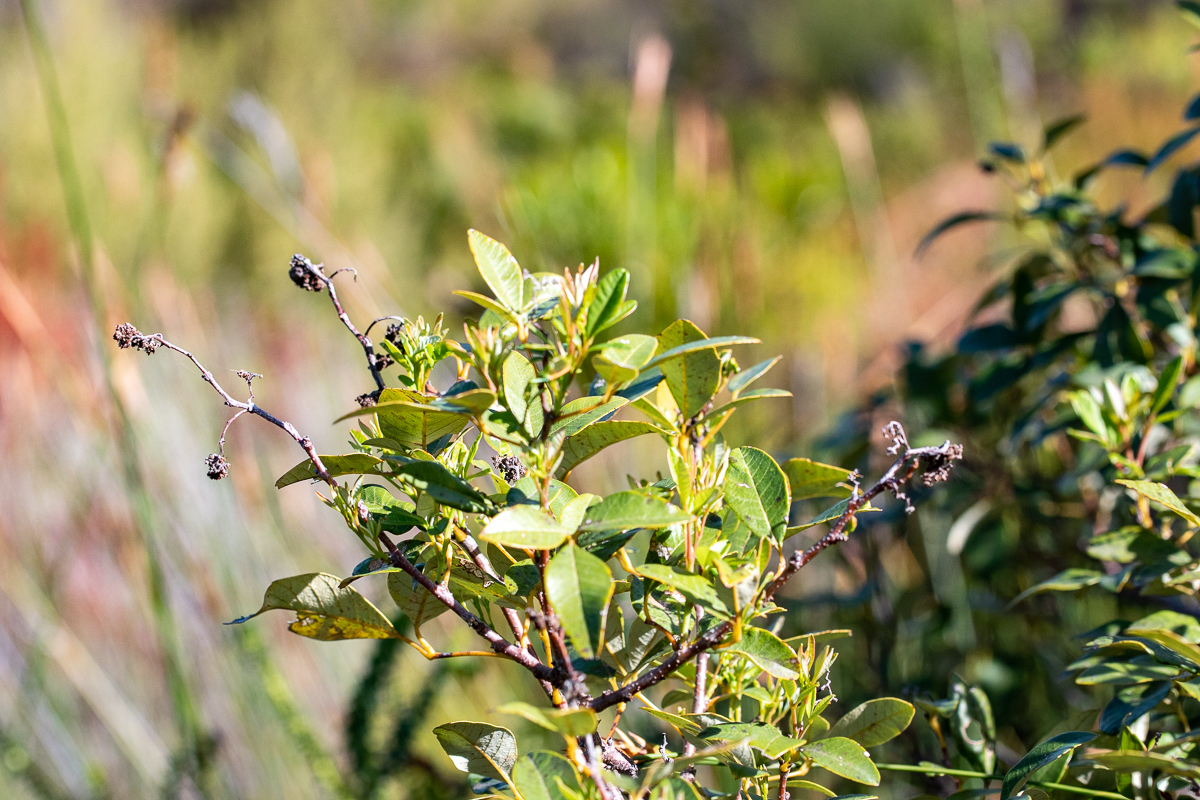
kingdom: Plantae
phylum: Tracheophyta
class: Magnoliopsida
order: Sapindales
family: Anacardiaceae
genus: Searsia
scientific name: Searsia tomentosa
